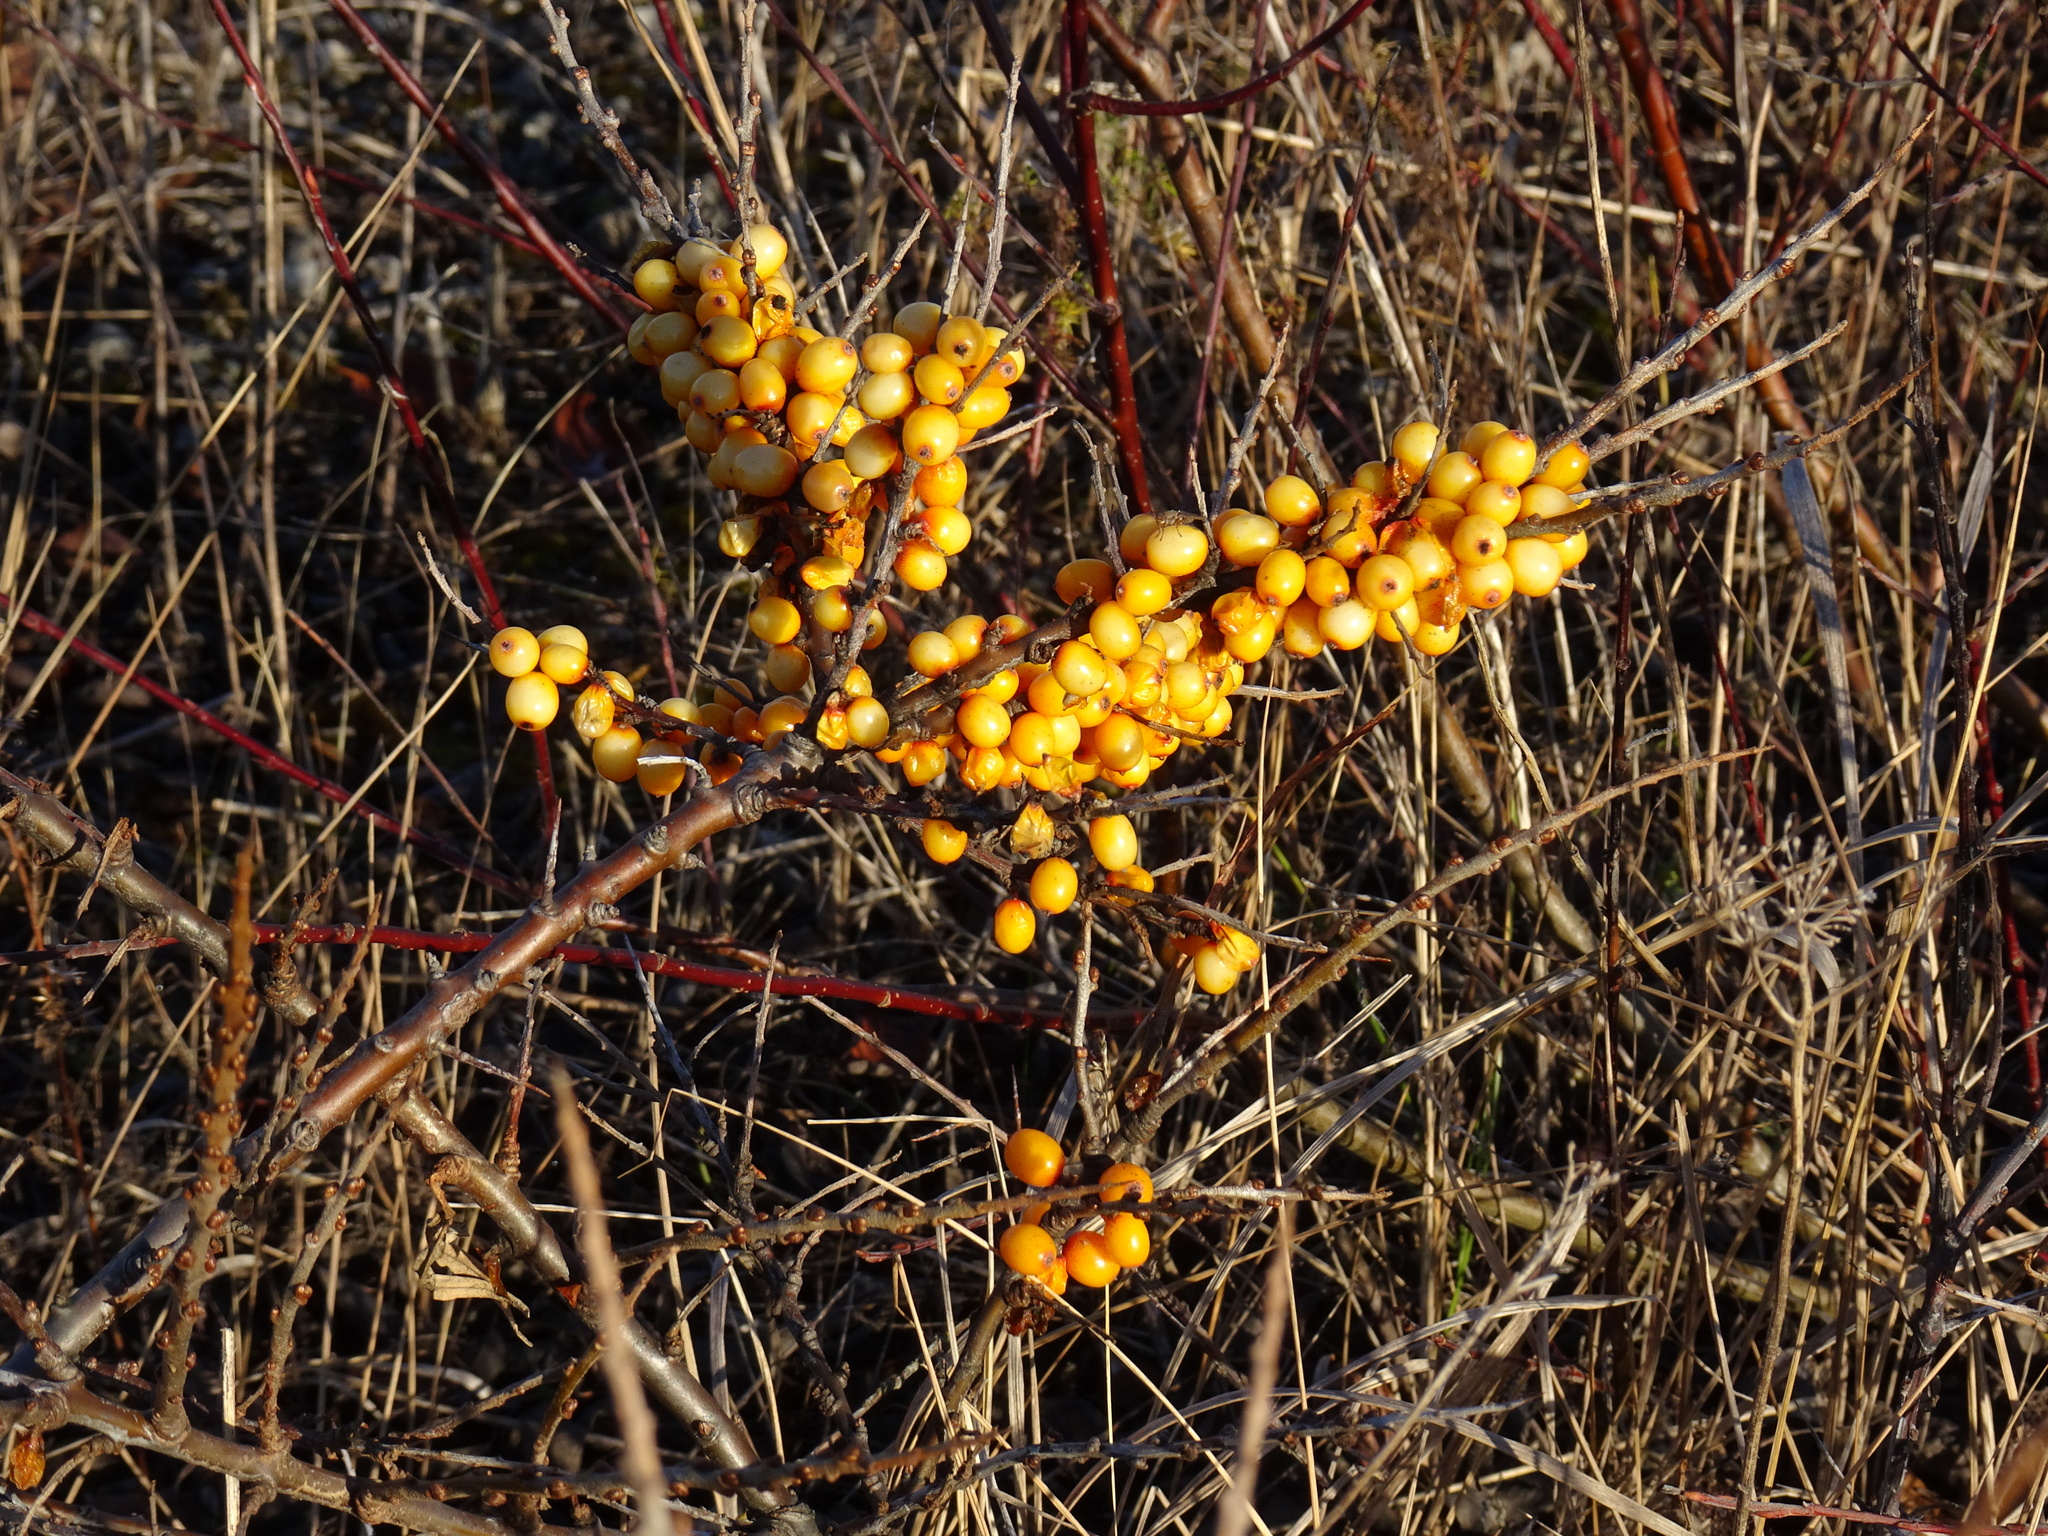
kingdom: Plantae
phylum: Tracheophyta
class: Magnoliopsida
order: Rosales
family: Elaeagnaceae
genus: Hippophae
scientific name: Hippophae rhamnoides
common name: Sea-buckthorn
